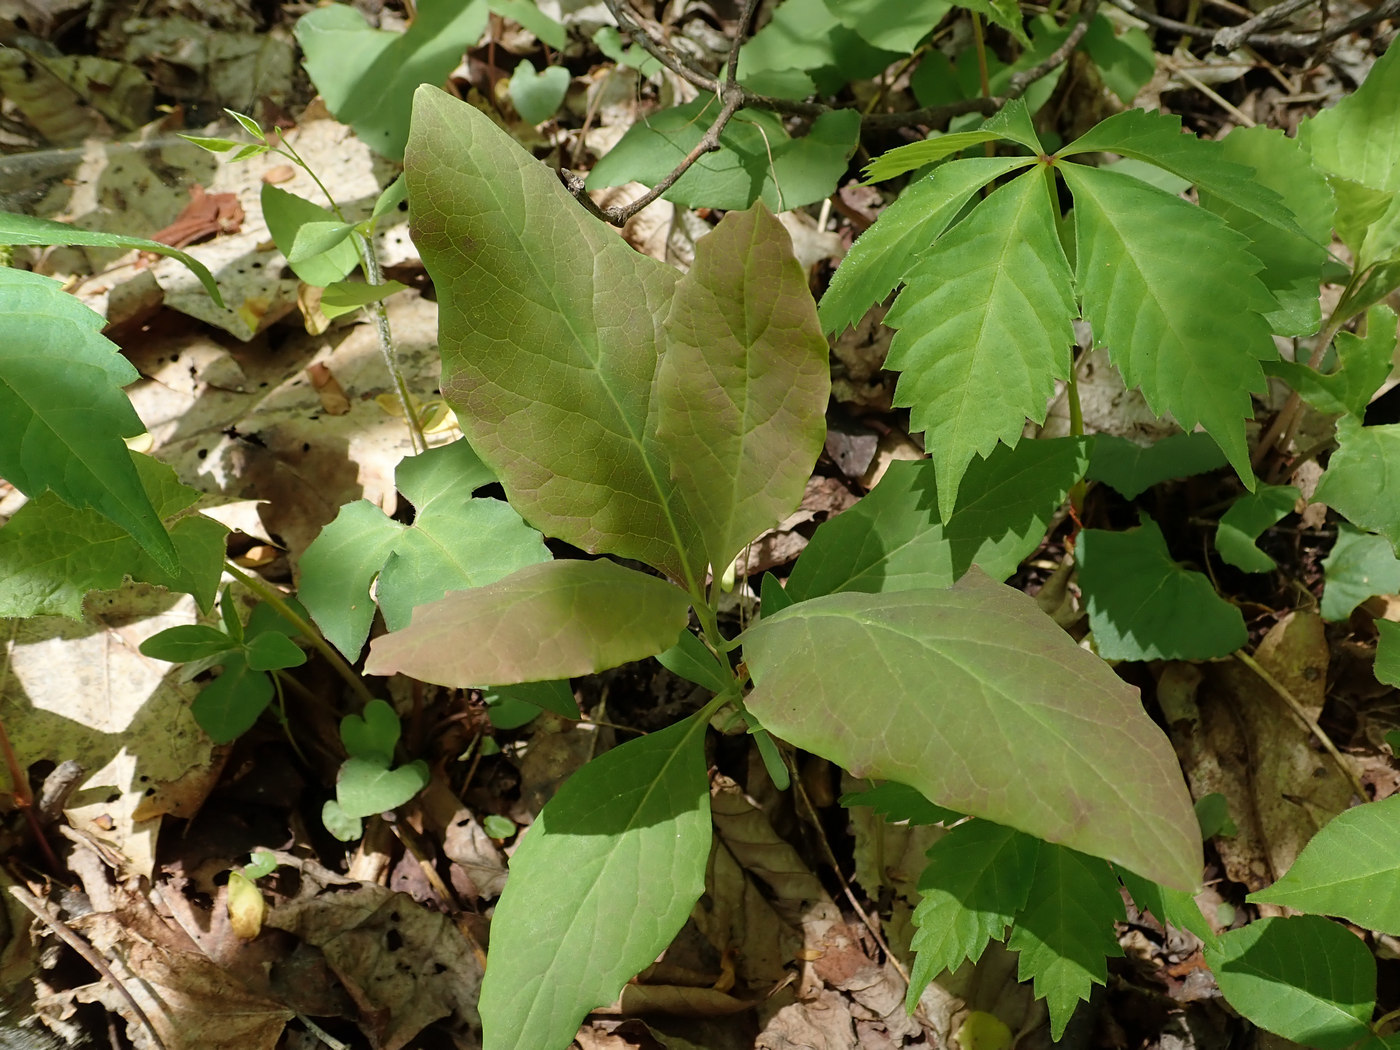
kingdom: Plantae
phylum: Tracheophyta
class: Magnoliopsida
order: Dipsacales
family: Caprifoliaceae
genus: Lonicera
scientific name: Lonicera dioica
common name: Limber honeysuckle
